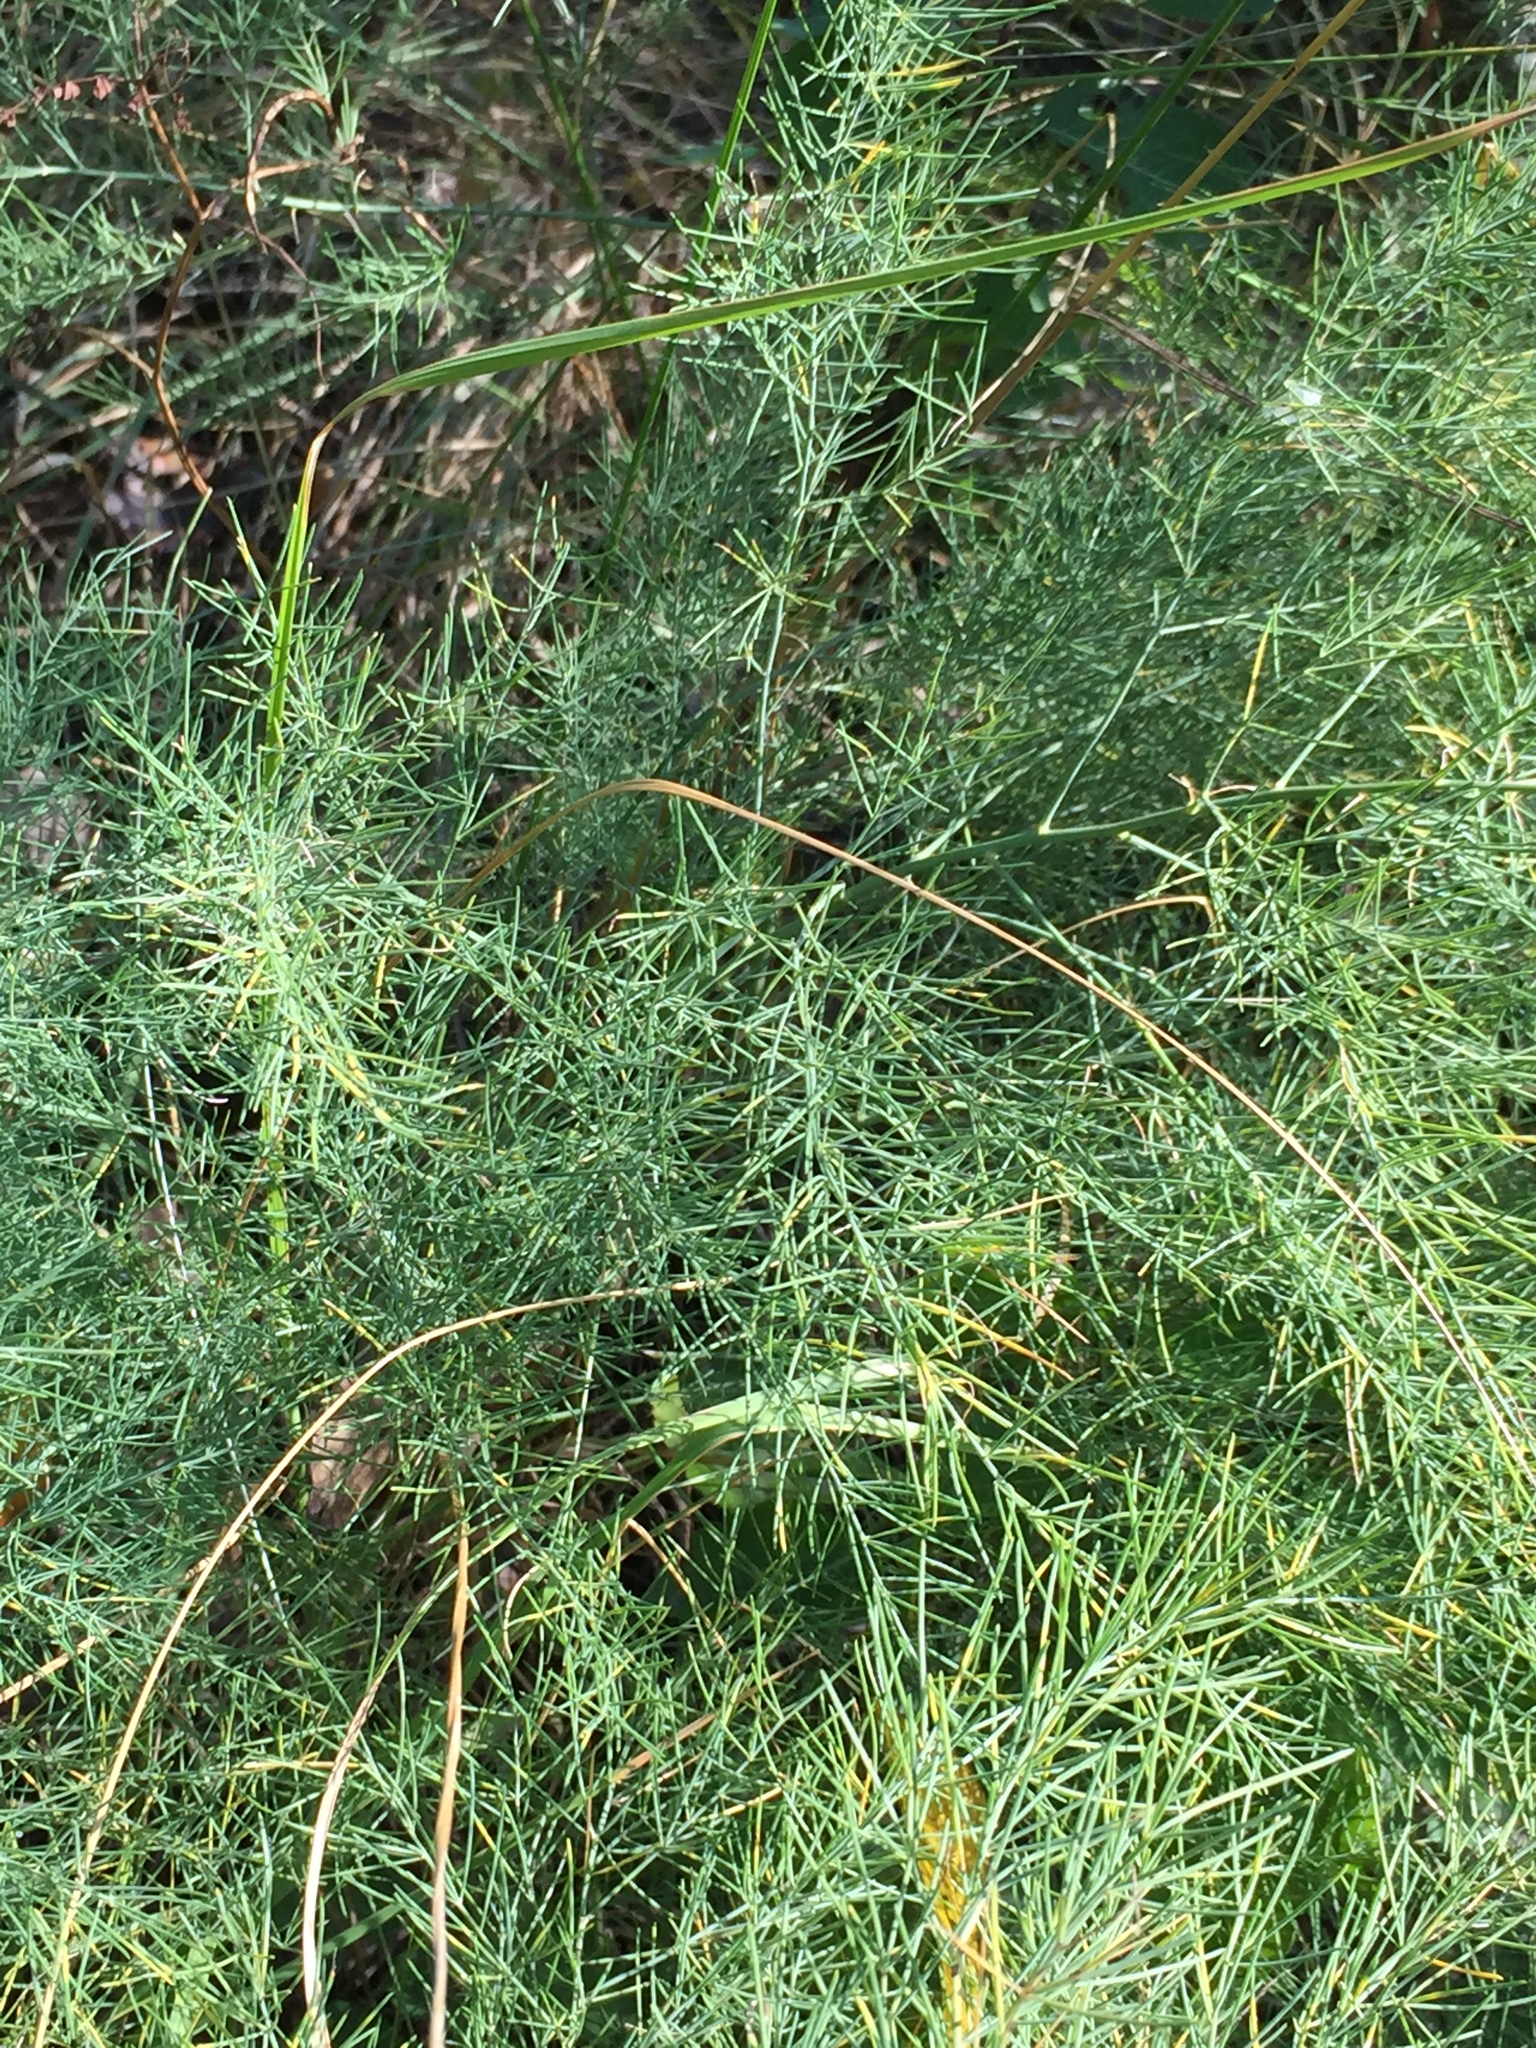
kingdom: Plantae
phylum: Tracheophyta
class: Liliopsida
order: Asparagales
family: Asparagaceae
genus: Asparagus
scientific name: Asparagus officinalis
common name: Garden asparagus
